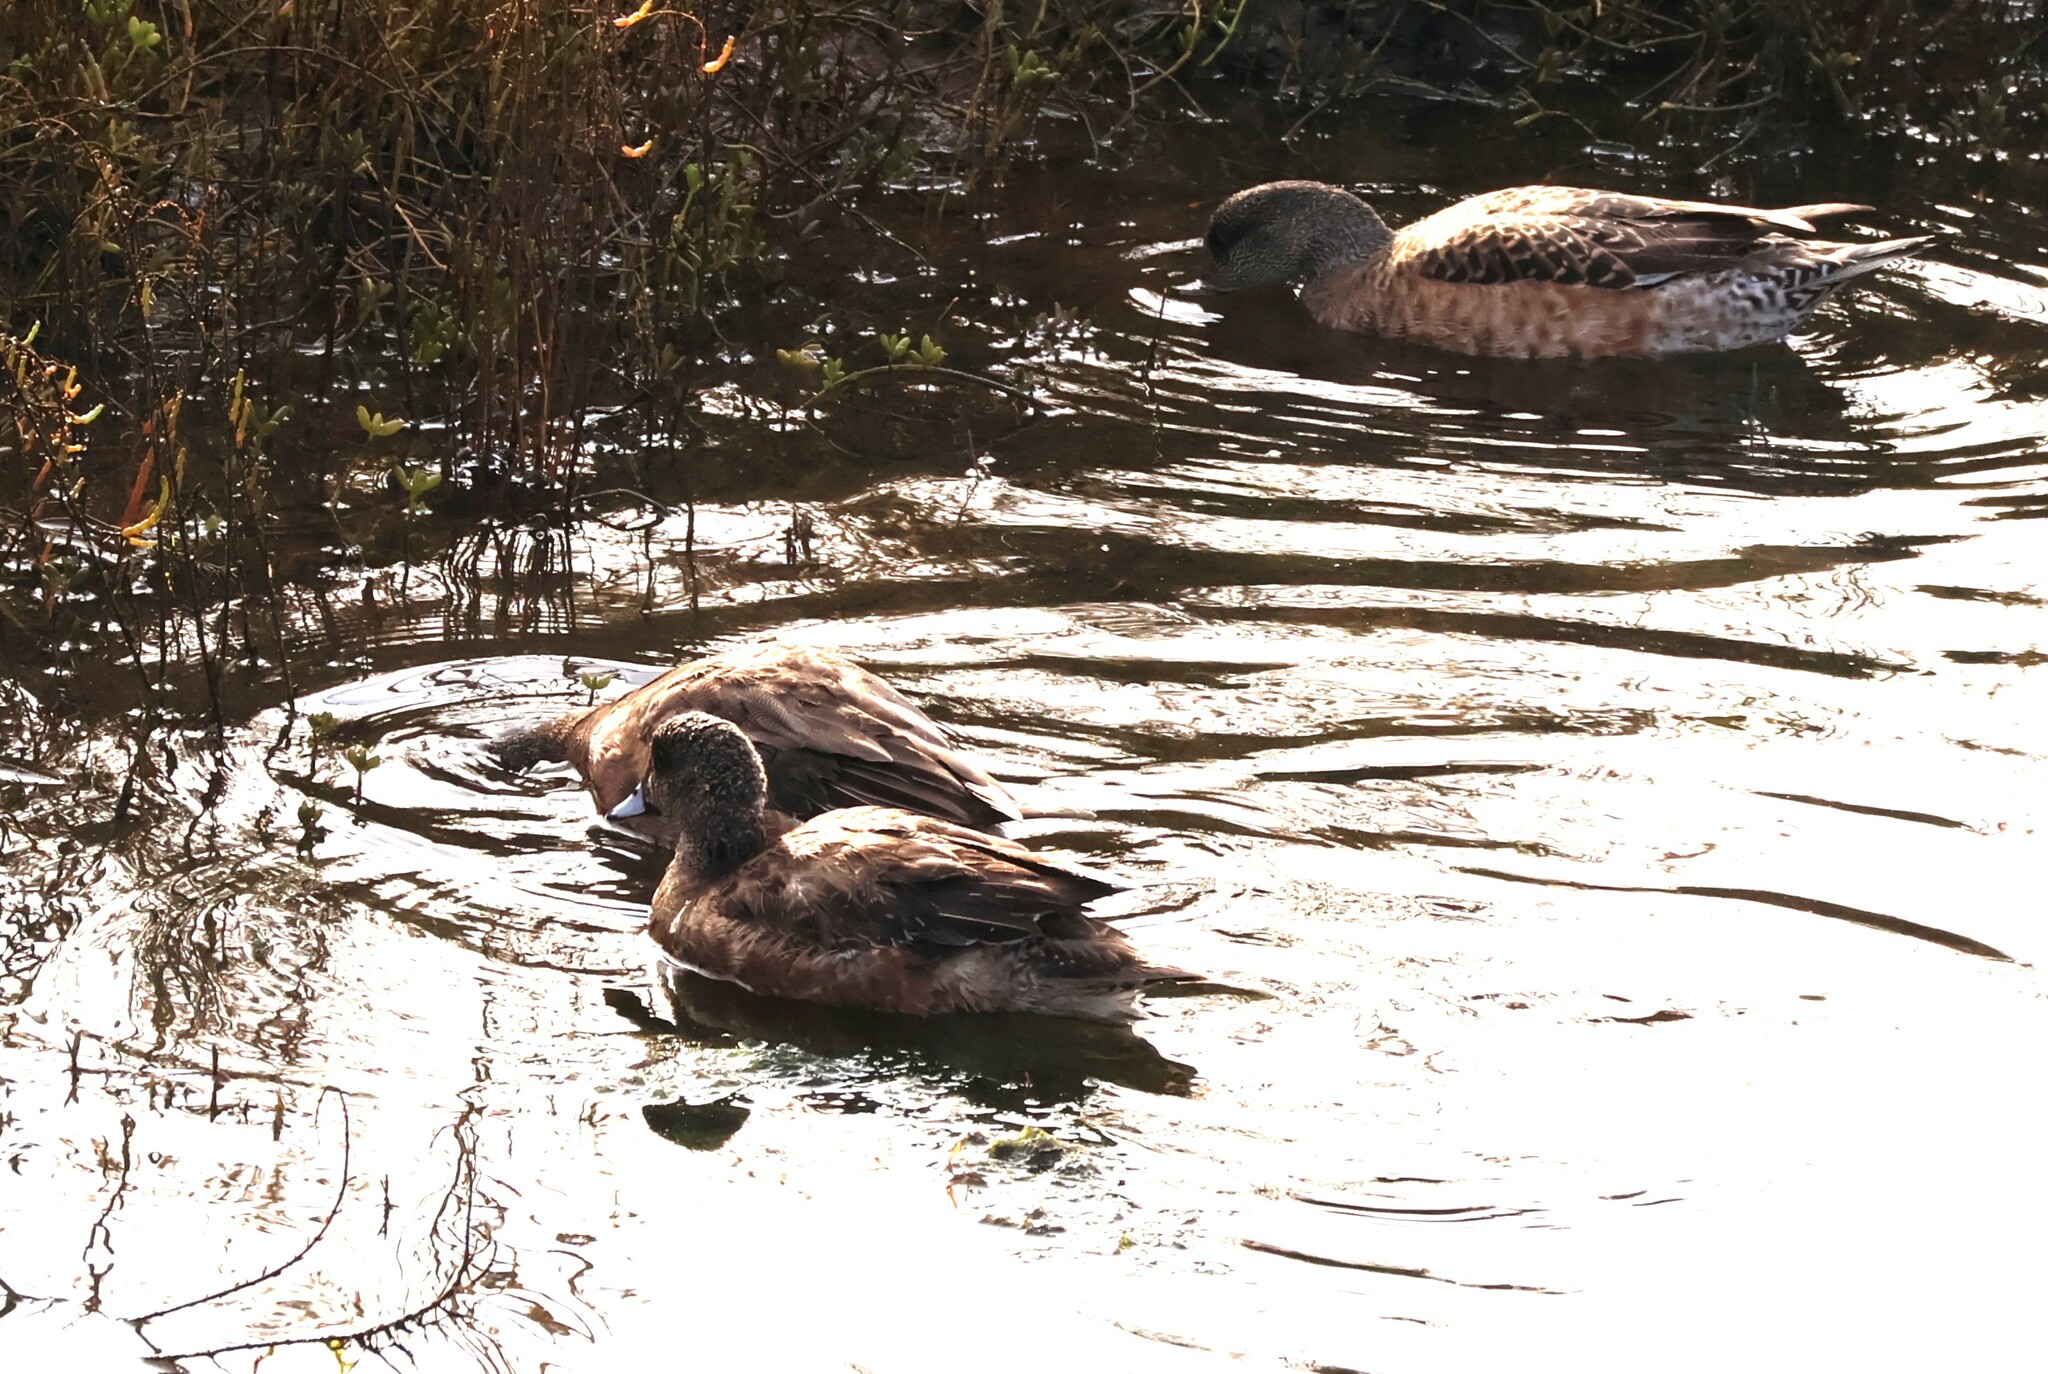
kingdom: Animalia
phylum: Chordata
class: Aves
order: Anseriformes
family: Anatidae
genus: Mareca
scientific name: Mareca americana
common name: American wigeon
